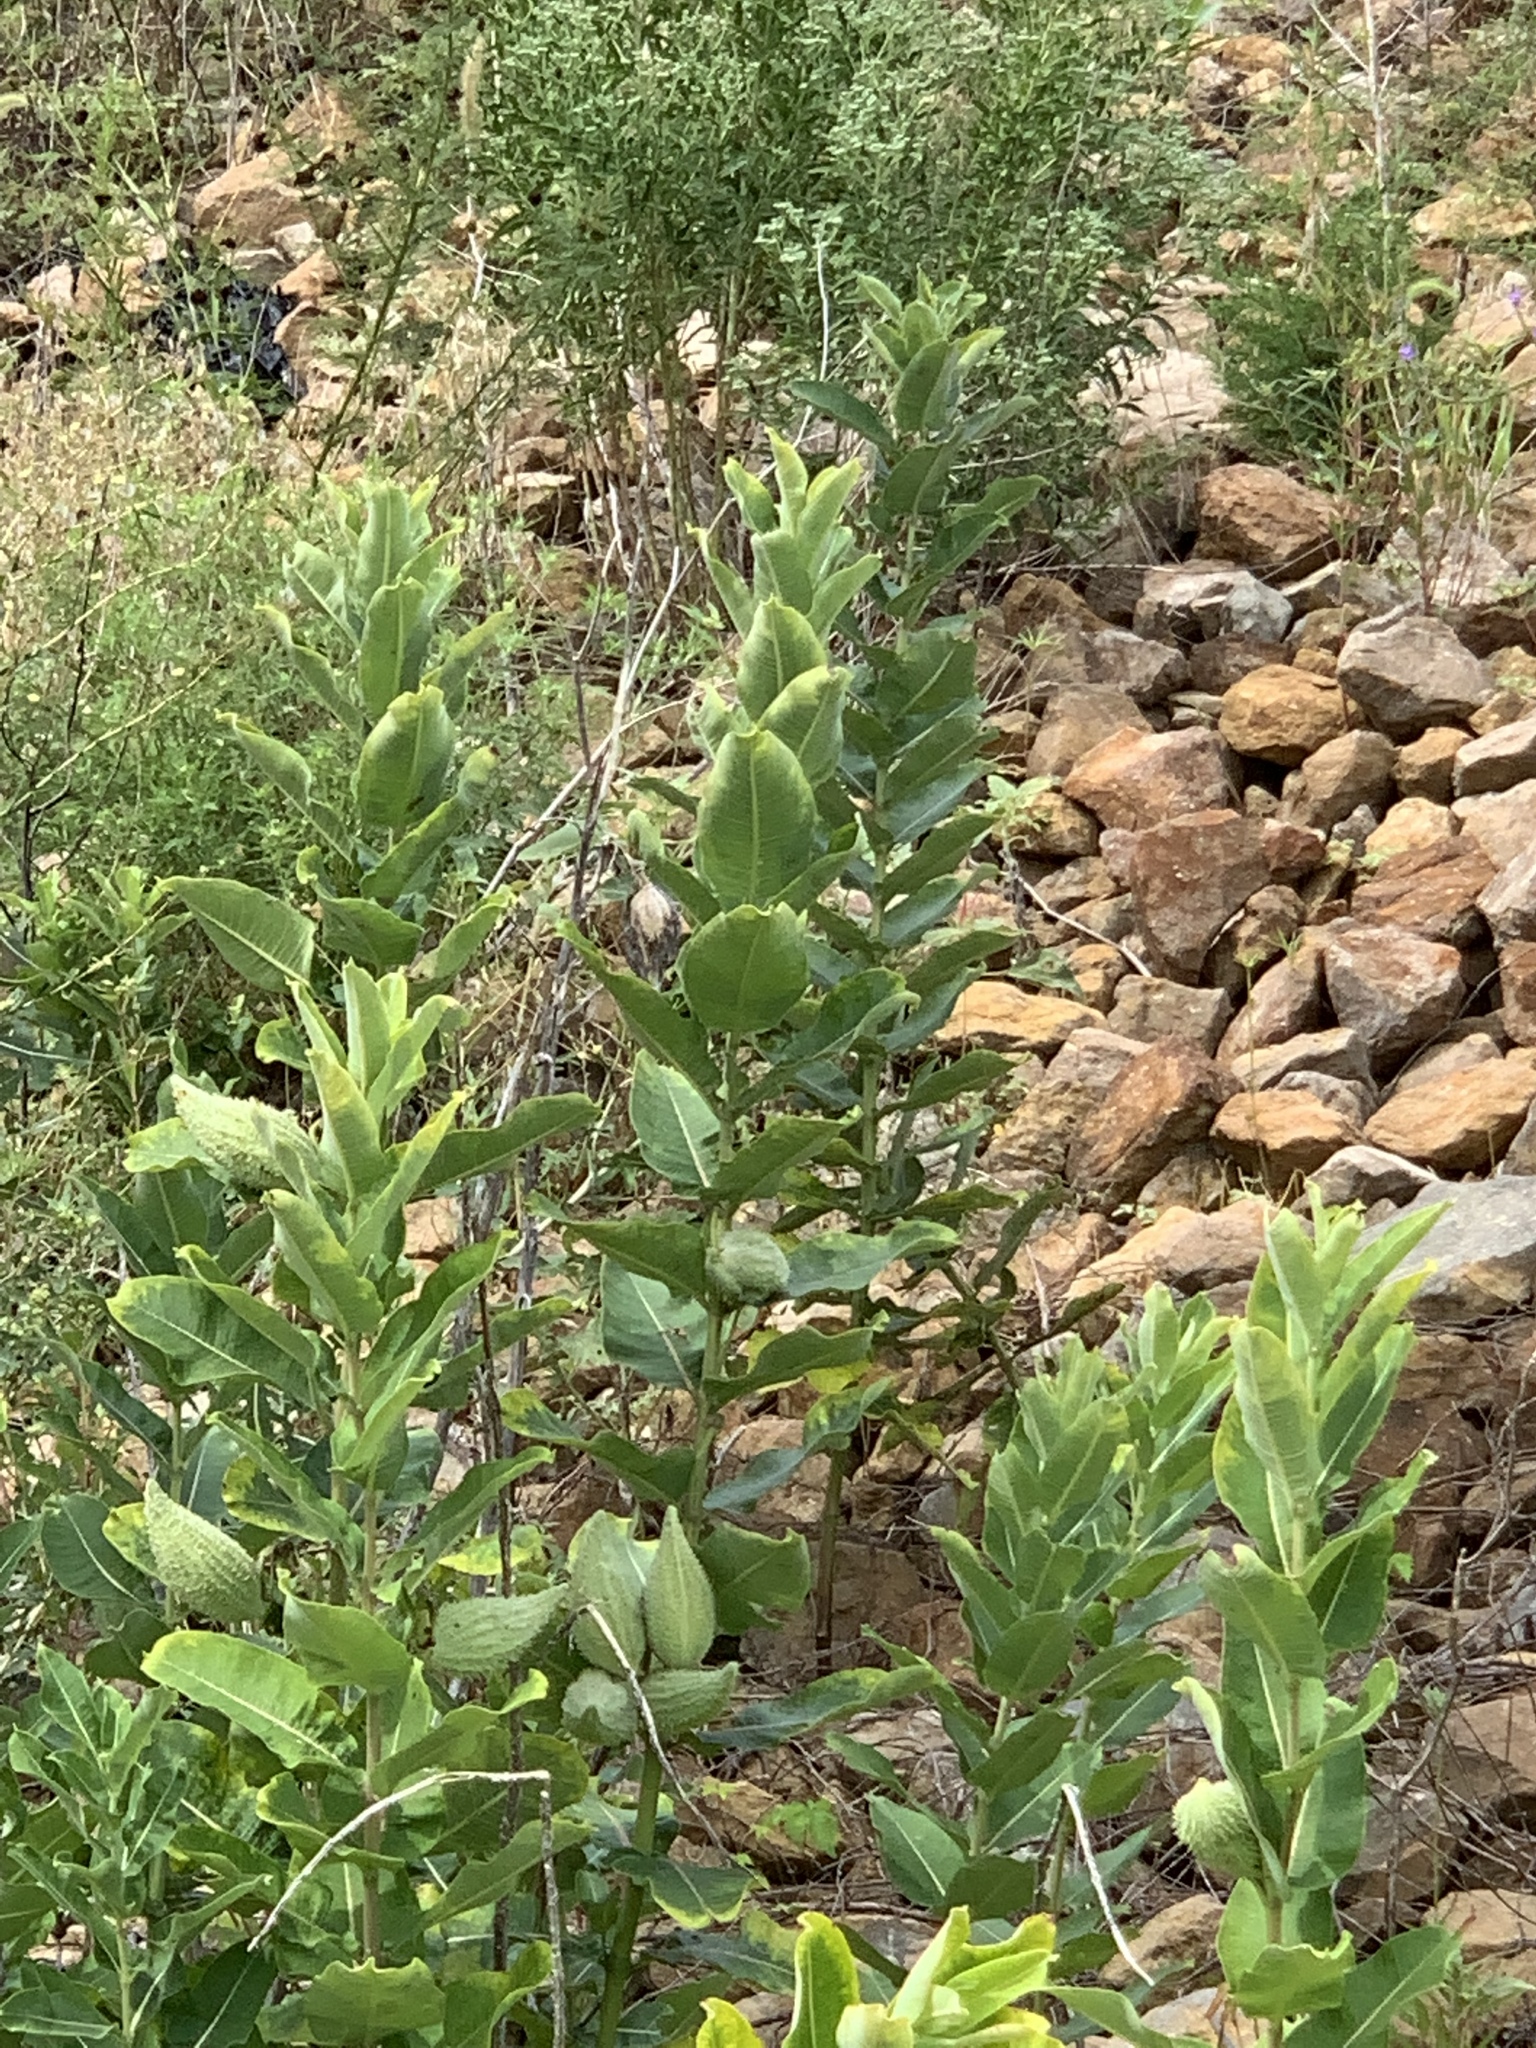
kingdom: Plantae
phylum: Tracheophyta
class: Magnoliopsida
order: Gentianales
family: Apocynaceae
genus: Asclepias
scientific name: Asclepias syriaca
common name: Common milkweed
